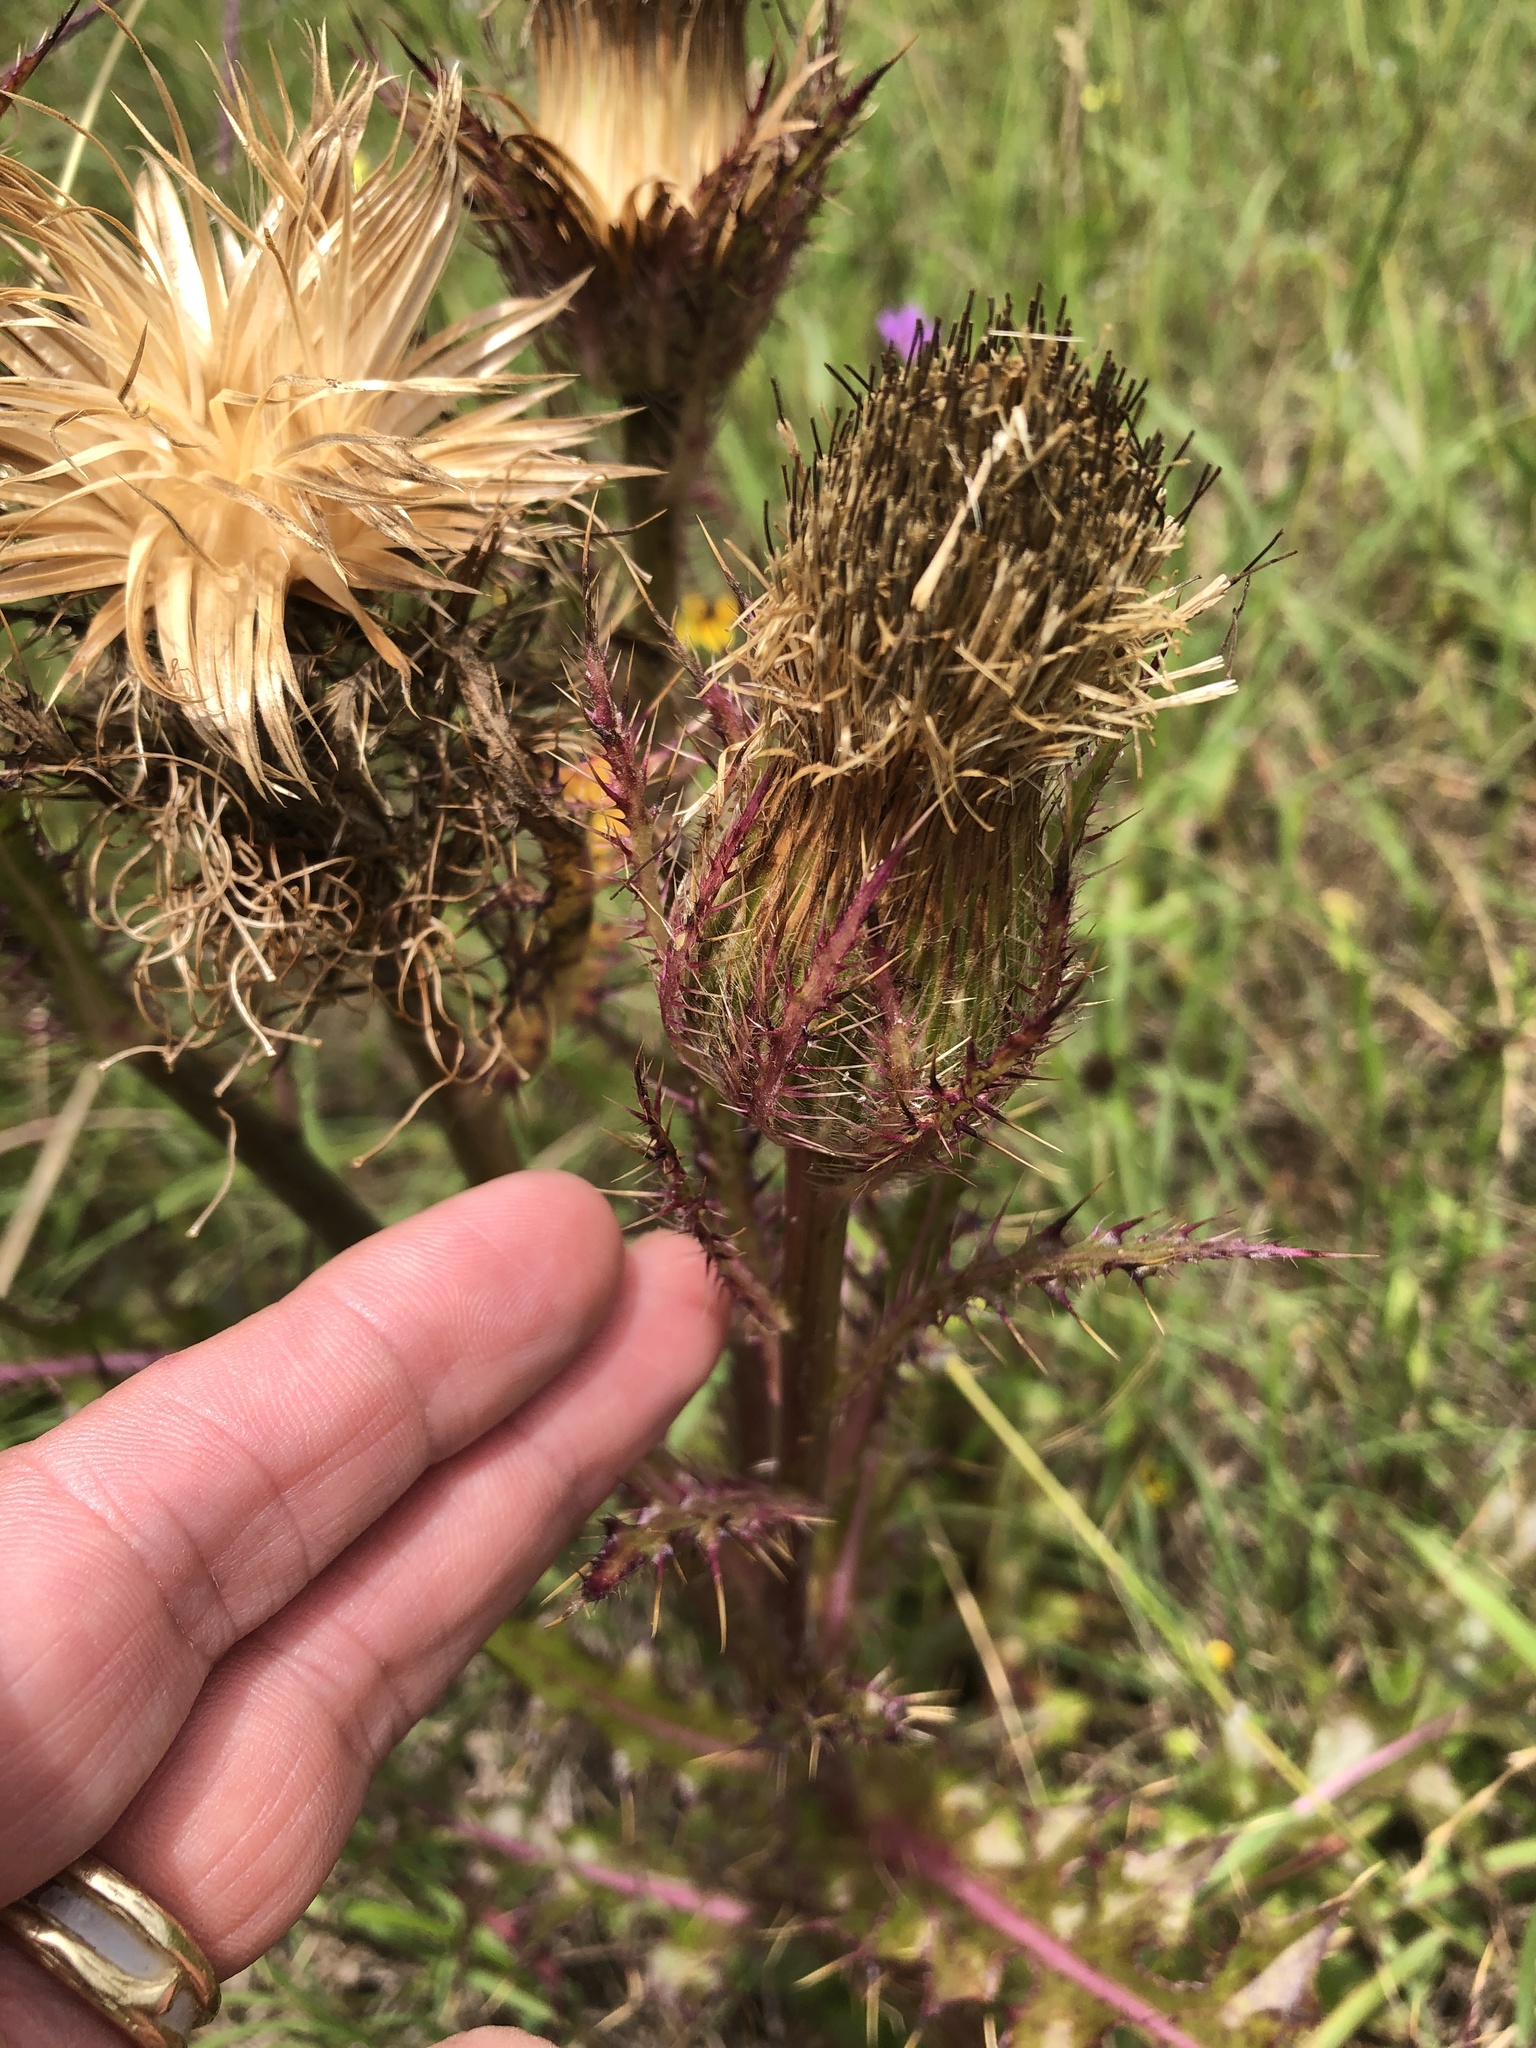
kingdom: Plantae
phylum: Tracheophyta
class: Magnoliopsida
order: Asterales
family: Asteraceae
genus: Cirsium
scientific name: Cirsium horridulum
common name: Bristly thistle
